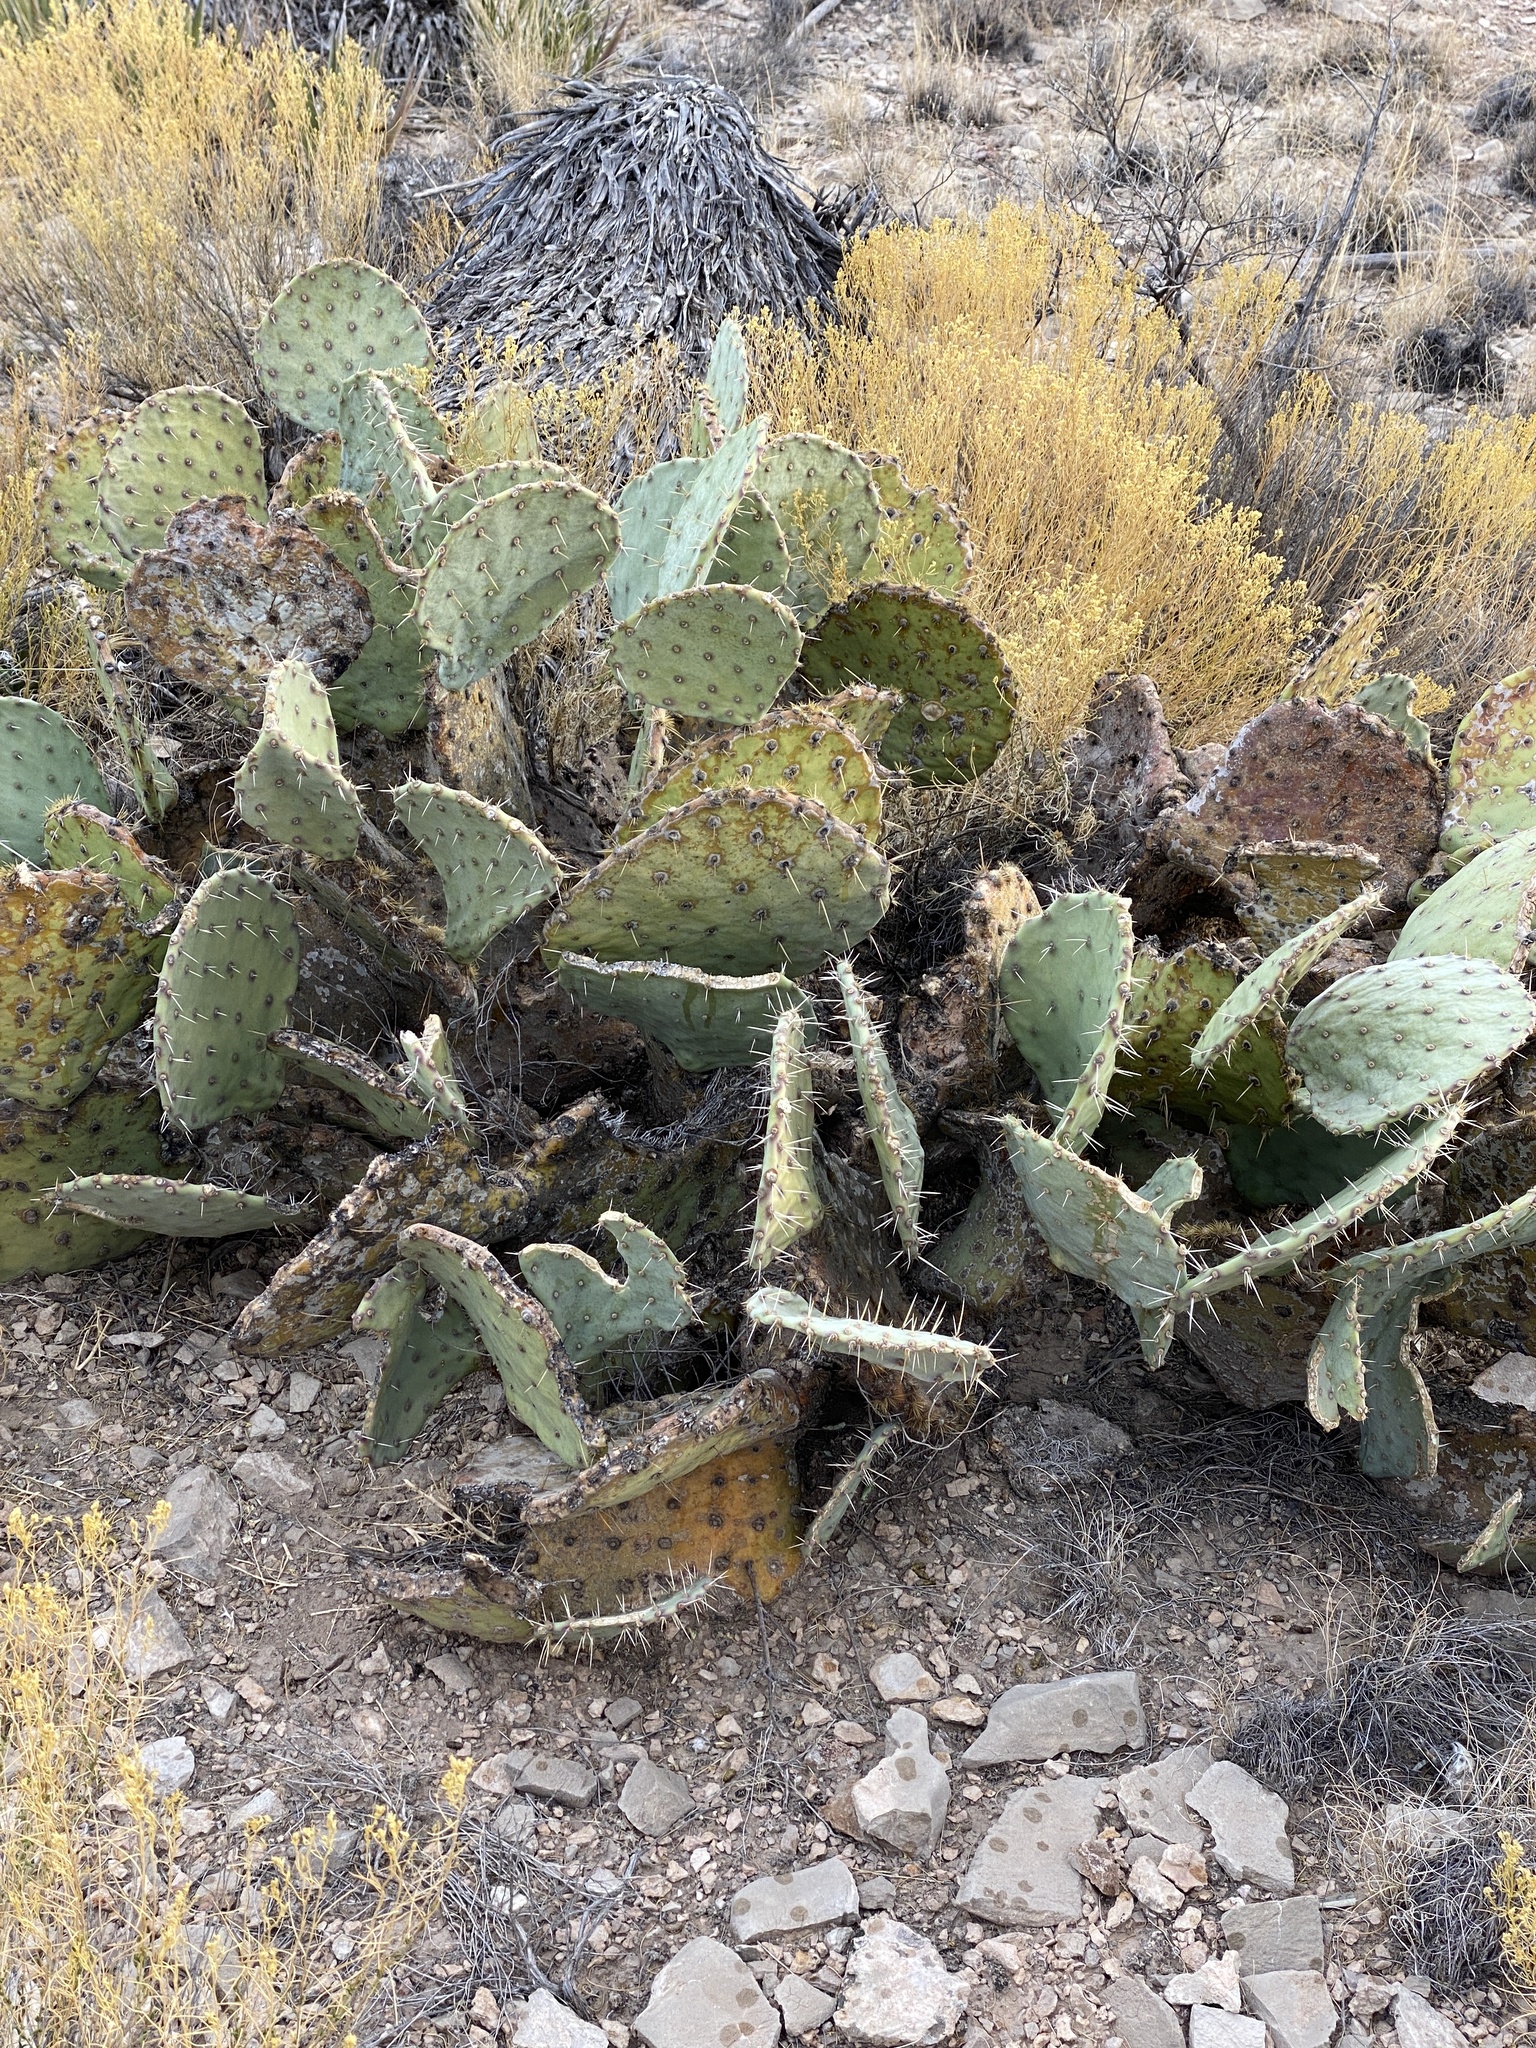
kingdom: Plantae
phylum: Tracheophyta
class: Magnoliopsida
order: Caryophyllales
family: Cactaceae
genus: Opuntia
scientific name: Opuntia engelmannii
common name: Cactus-apple
